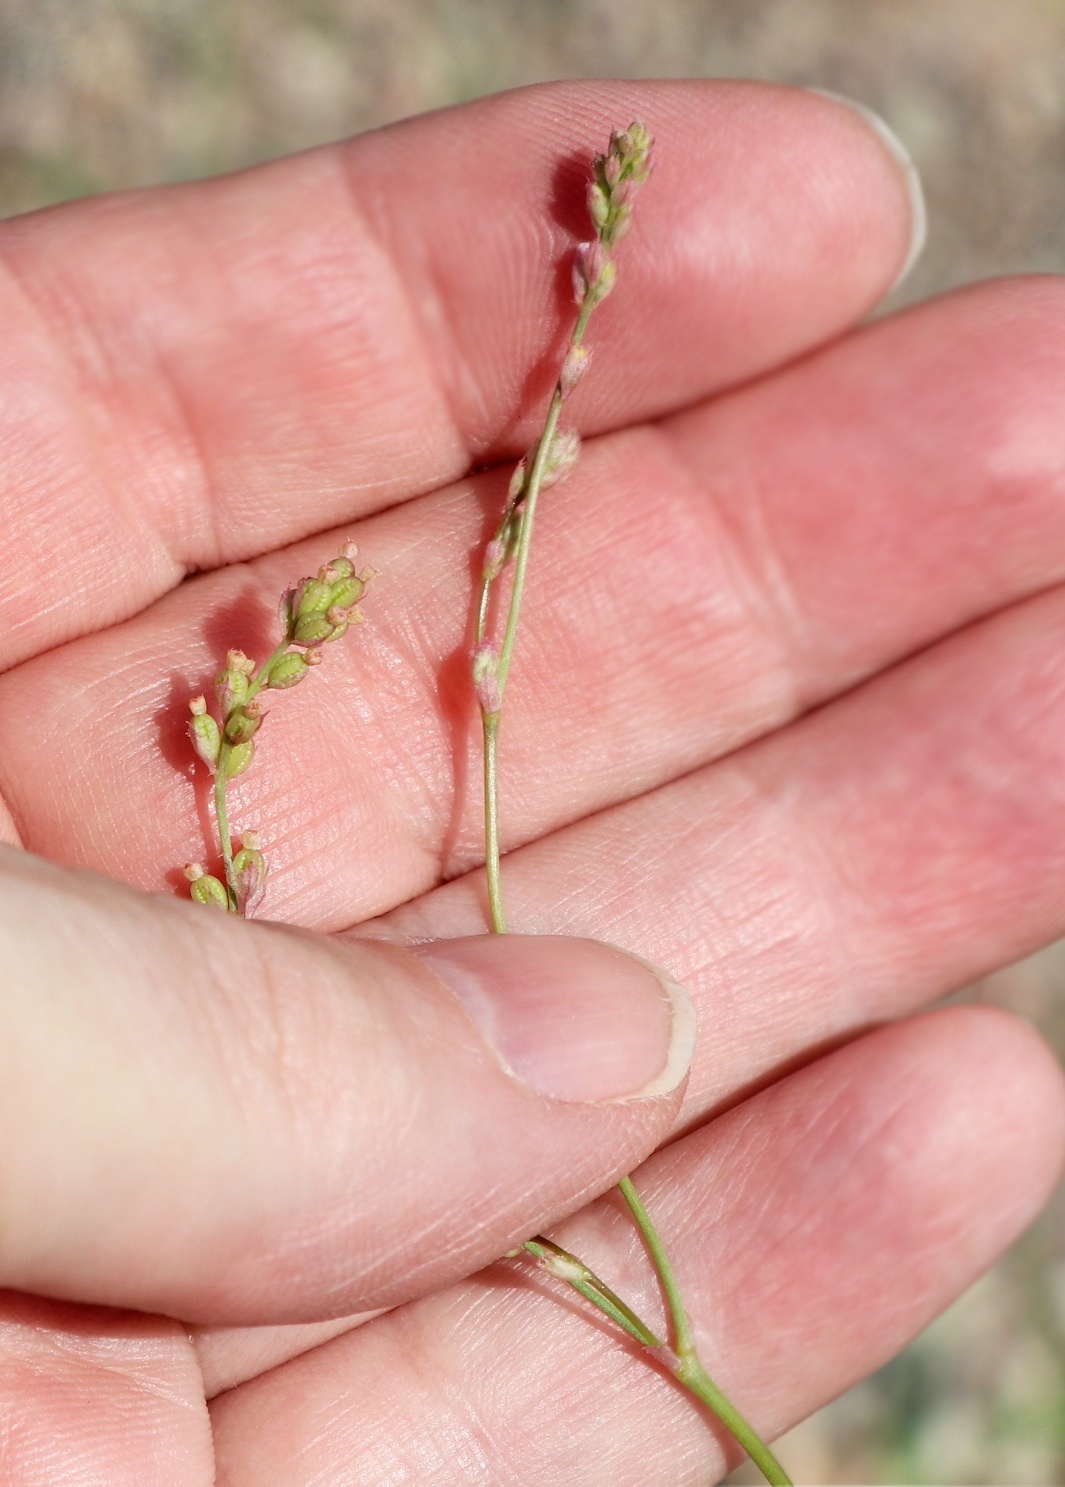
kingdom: Plantae
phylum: Tracheophyta
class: Magnoliopsida
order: Caryophyllales
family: Nyctaginaceae
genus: Boerhavia
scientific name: Boerhavia wrightii
